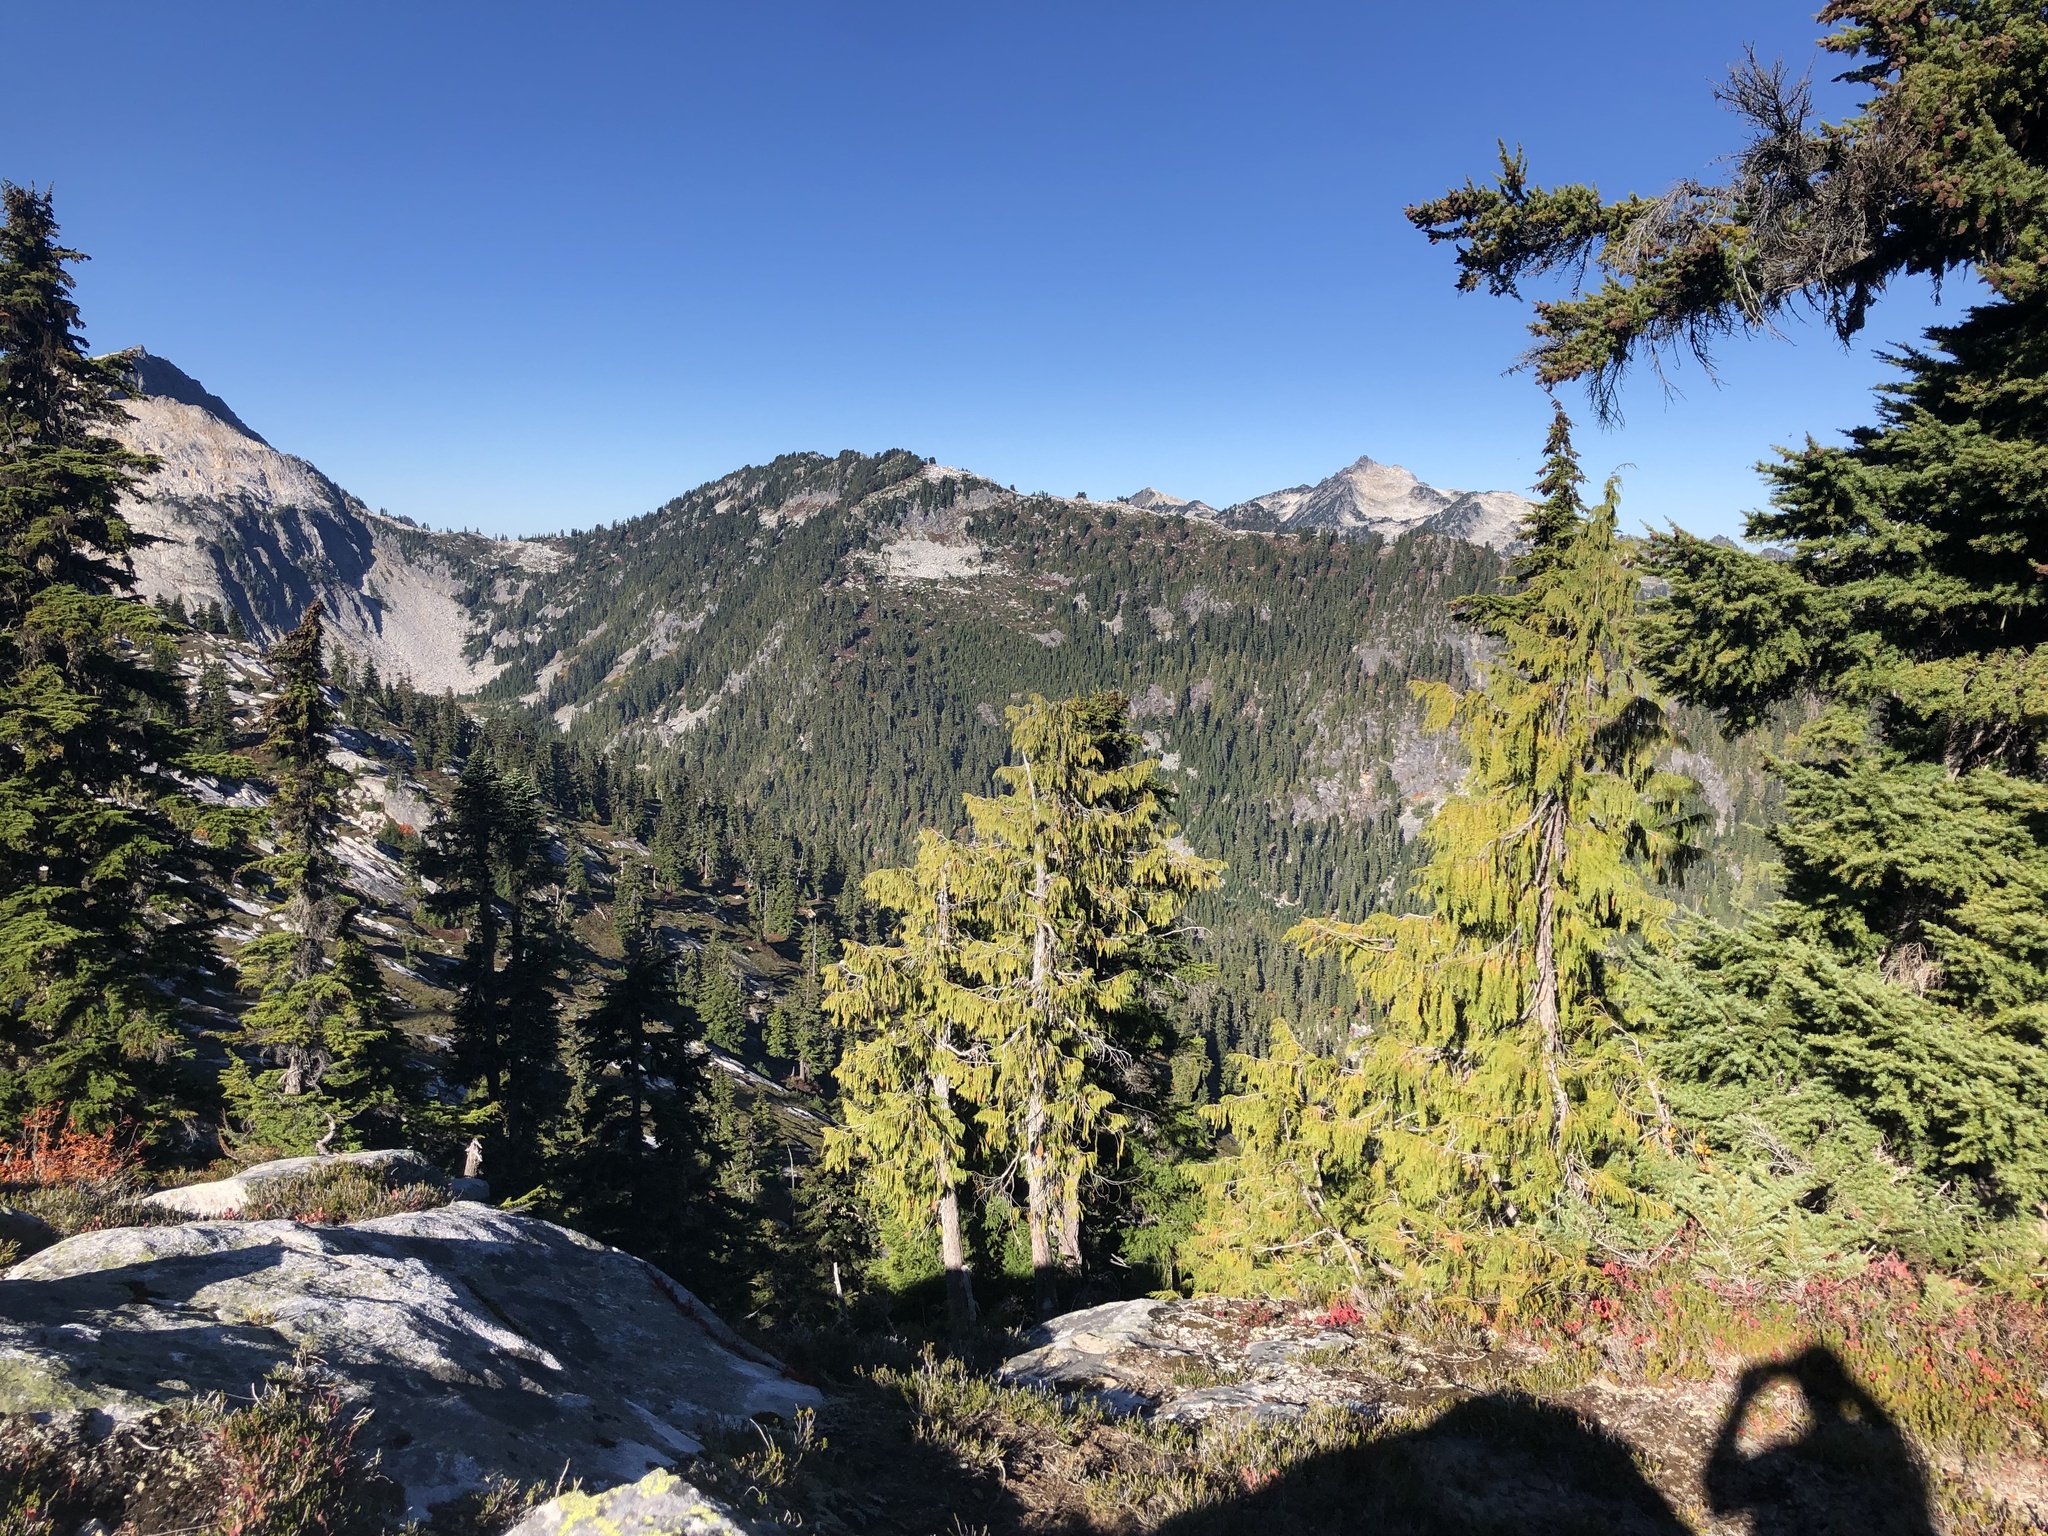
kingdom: Plantae
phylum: Tracheophyta
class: Pinopsida
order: Pinales
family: Cupressaceae
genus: Xanthocyparis
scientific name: Xanthocyparis nootkatensis
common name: Nootka cypress
